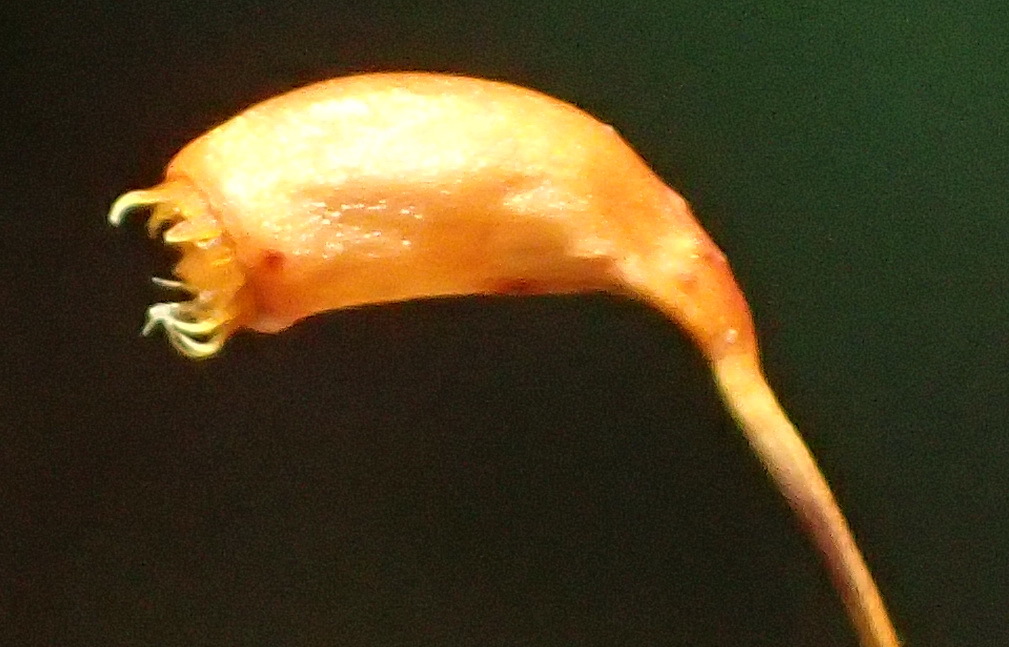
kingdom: Plantae
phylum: Bryophyta
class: Bryopsida
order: Rhizogoniales
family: Calomniaceae
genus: Pyrrhobryum
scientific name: Pyrrhobryum spiniforme
